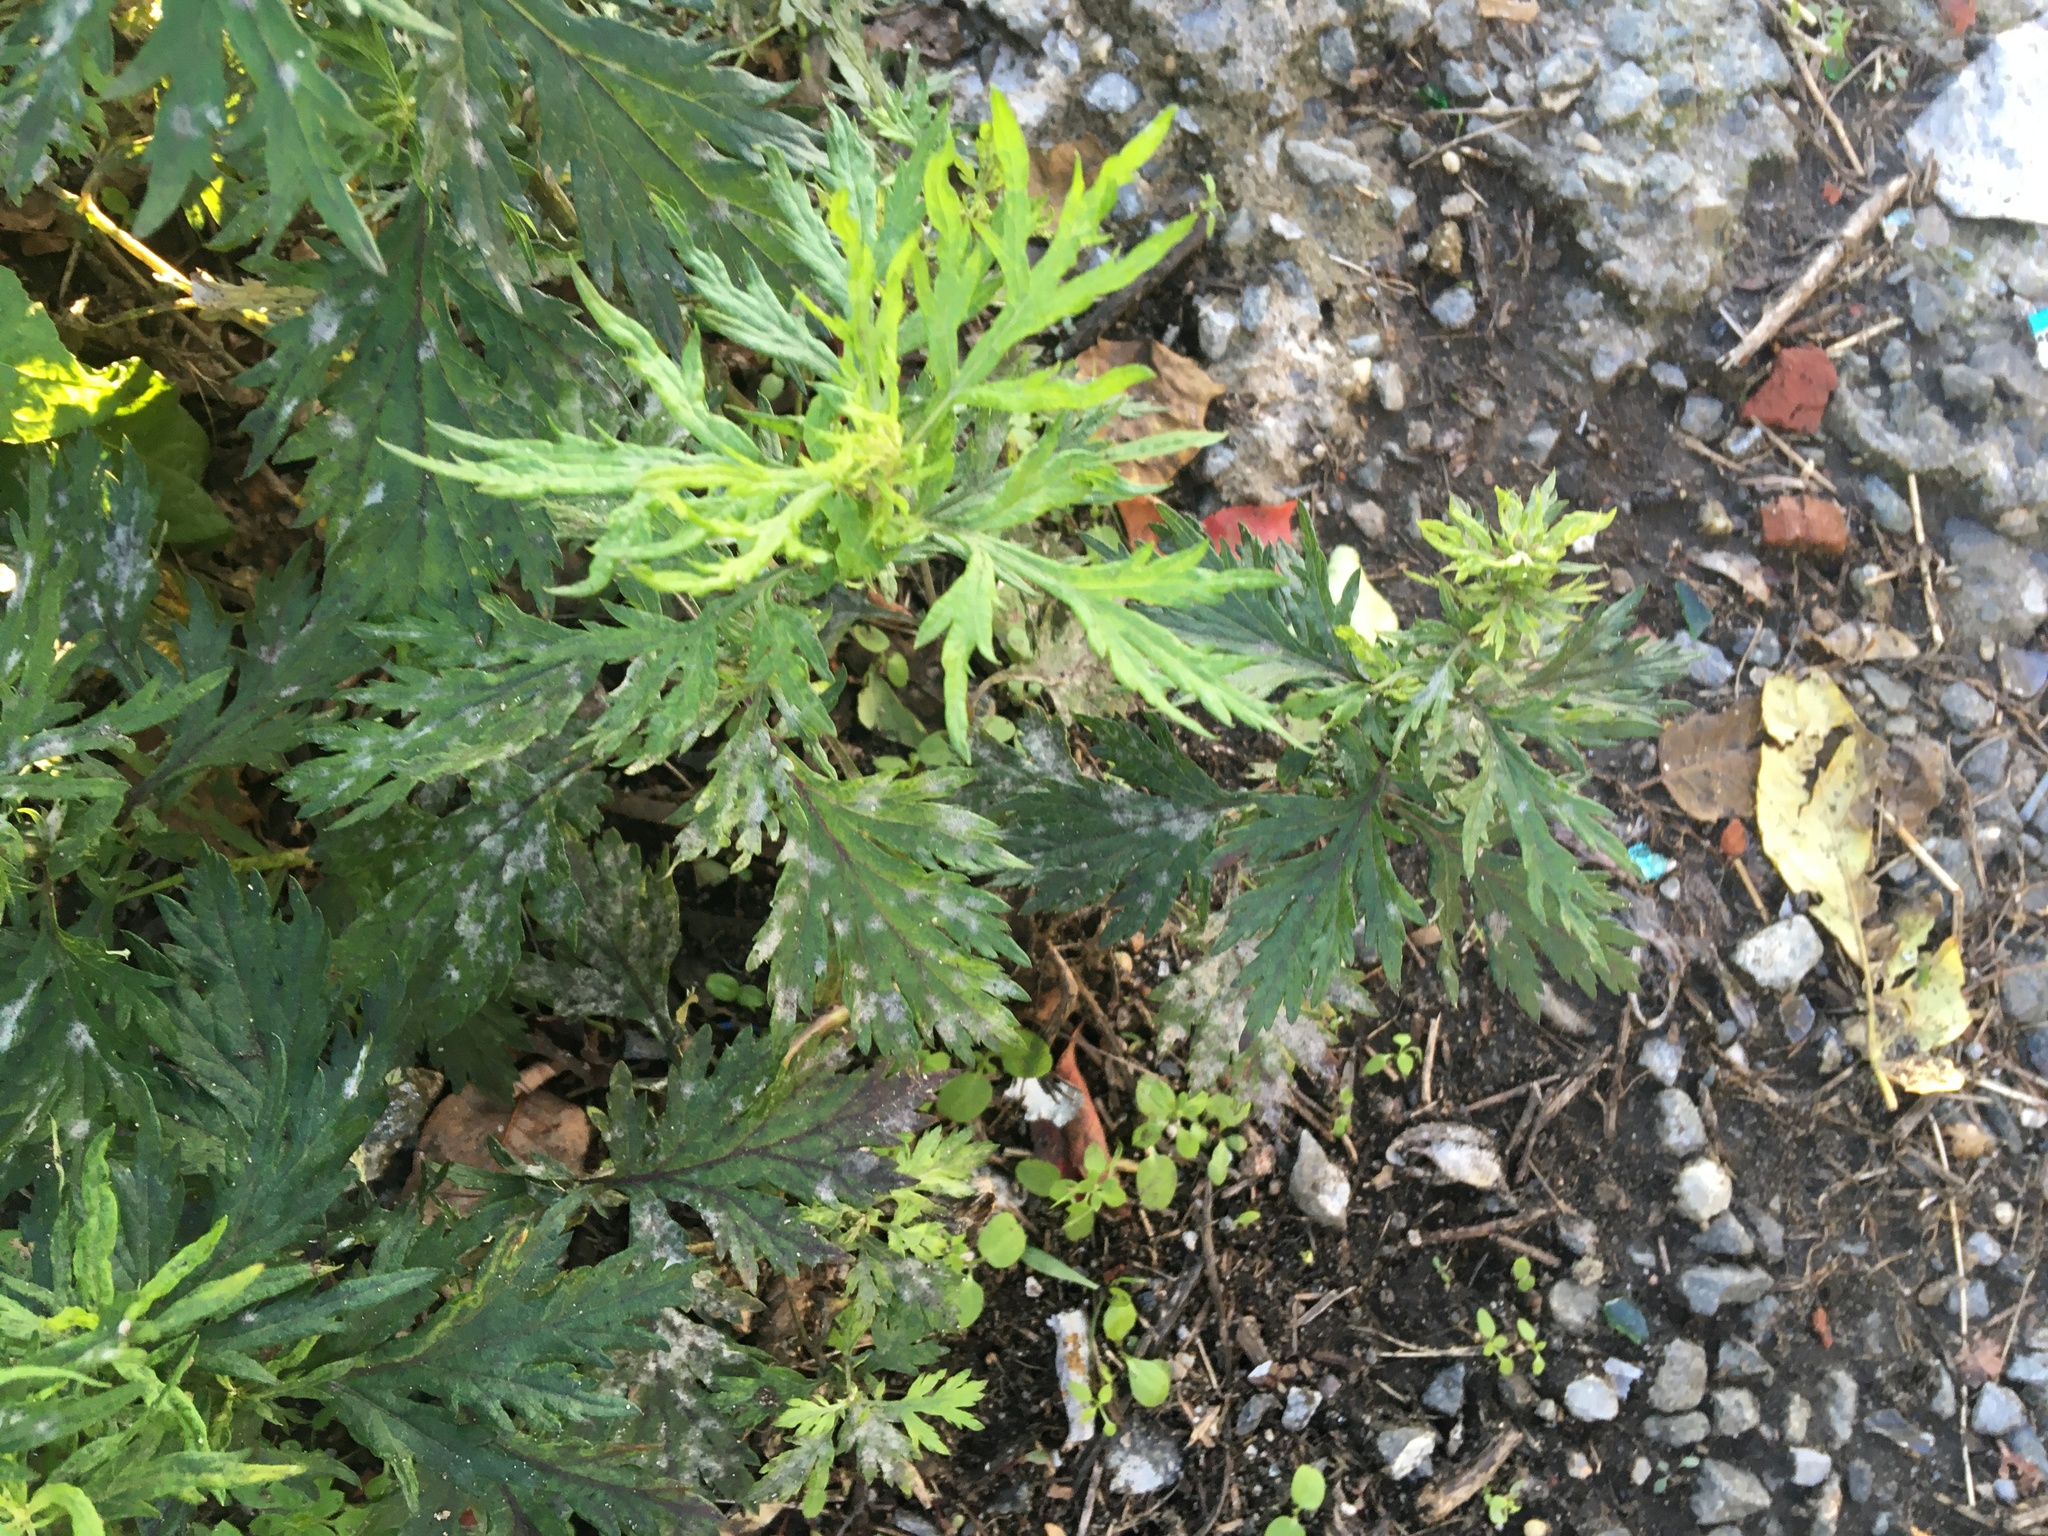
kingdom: Plantae
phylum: Tracheophyta
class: Magnoliopsida
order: Asterales
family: Asteraceae
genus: Artemisia
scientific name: Artemisia vulgaris
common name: Mugwort
